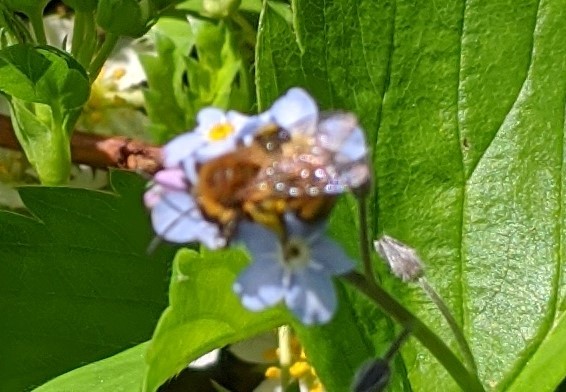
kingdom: Animalia
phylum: Arthropoda
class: Insecta
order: Hymenoptera
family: Andrenidae
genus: Andrena
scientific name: Andrena milwaukeensis
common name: Milwaukee mining bee
